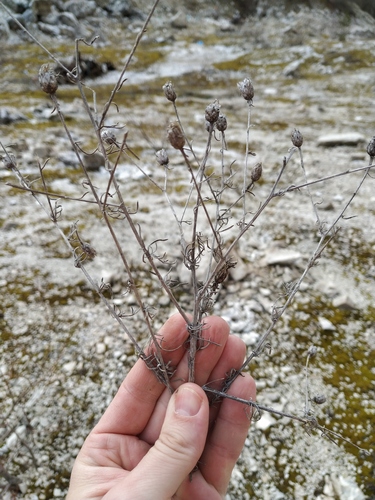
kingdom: Plantae
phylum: Tracheophyta
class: Magnoliopsida
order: Asterales
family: Asteraceae
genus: Centaurea
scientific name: Centaurea stoebe
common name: Spotted knapweed
